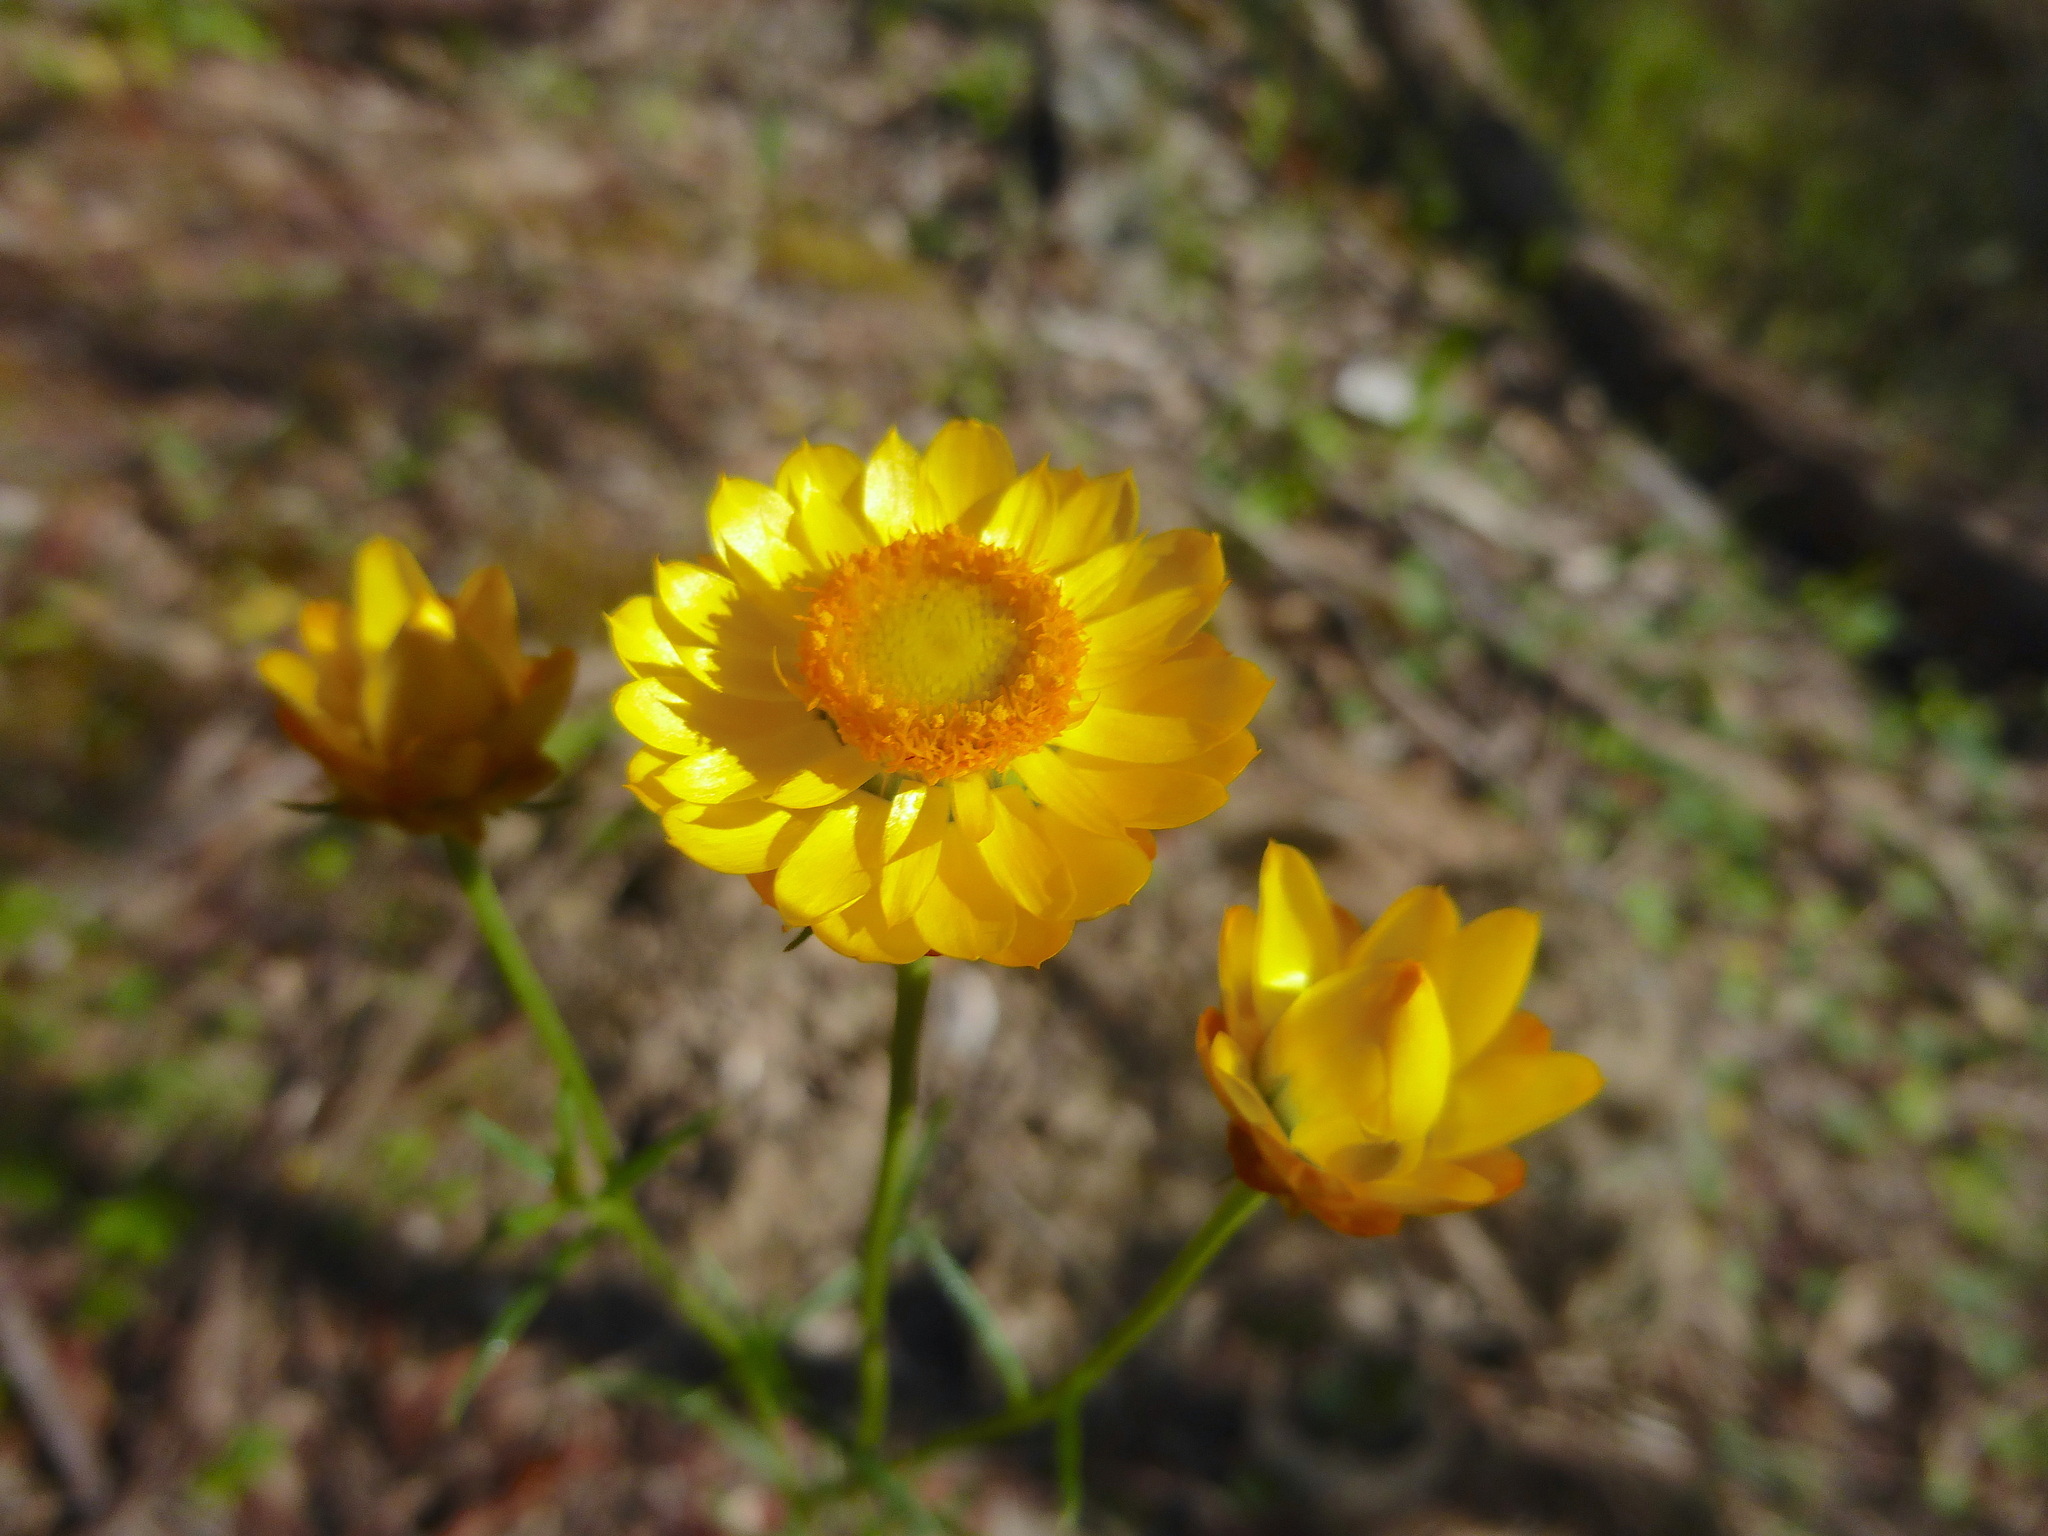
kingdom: Plantae
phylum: Tracheophyta
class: Magnoliopsida
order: Asterales
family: Asteraceae
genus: Xerochrysum
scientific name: Xerochrysum viscosum
